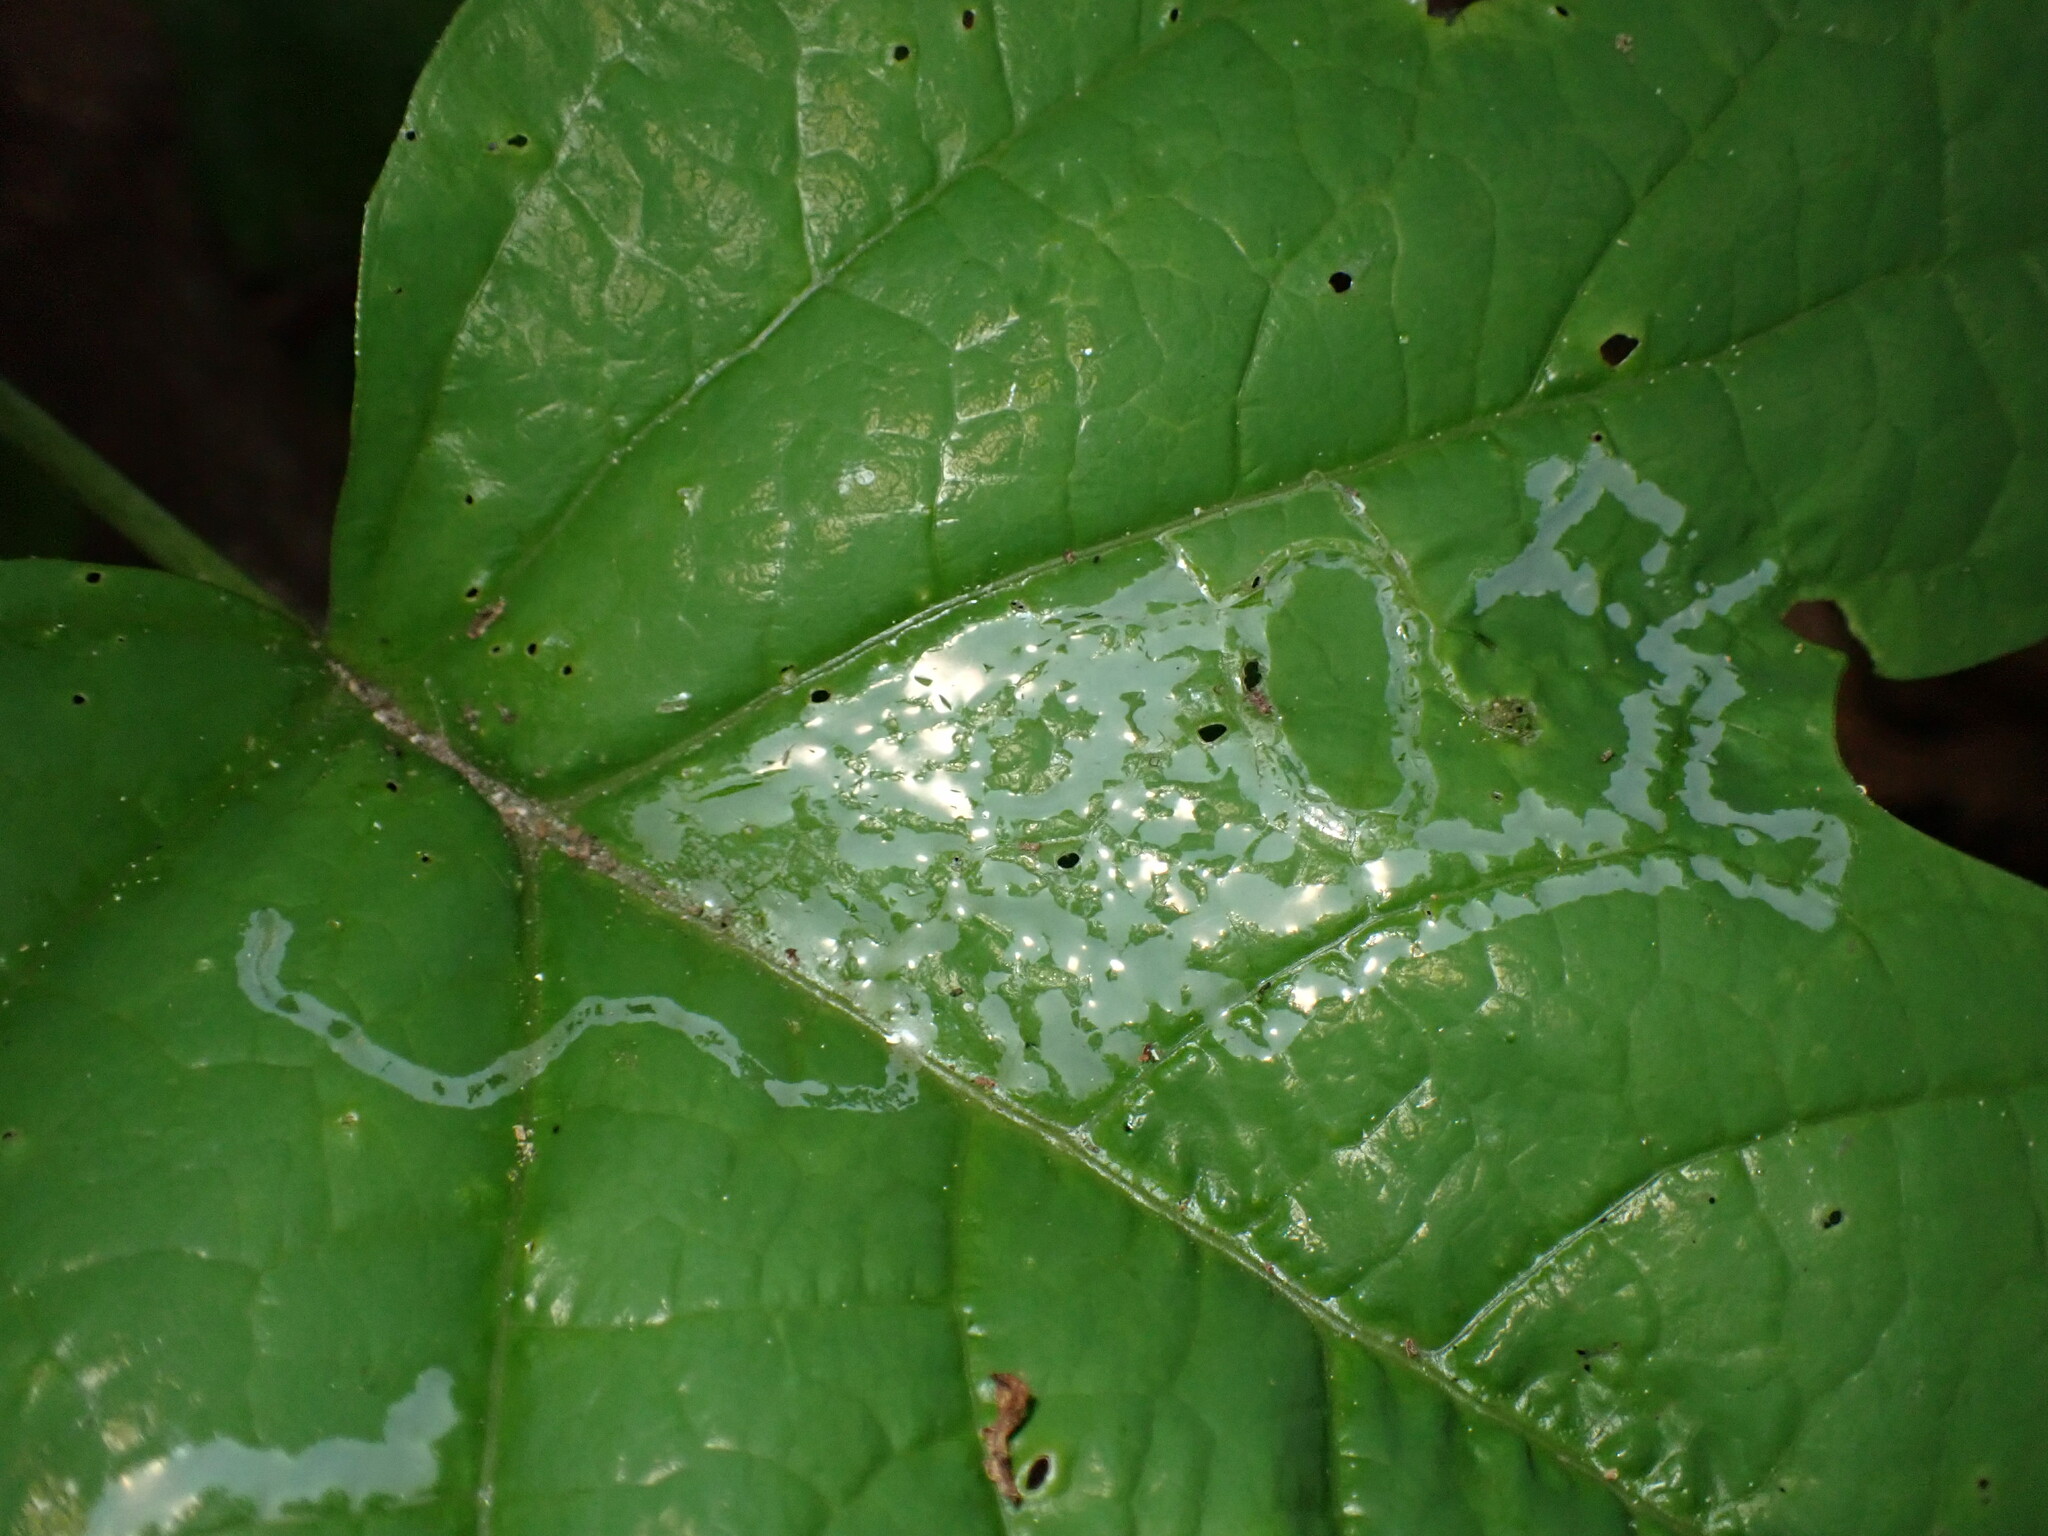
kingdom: Animalia
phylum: Arthropoda
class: Insecta
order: Lepidoptera
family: Gracillariidae
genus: Phyllocnistis
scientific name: Phyllocnistis liriodendronella
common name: Tulip tree leaf miner
